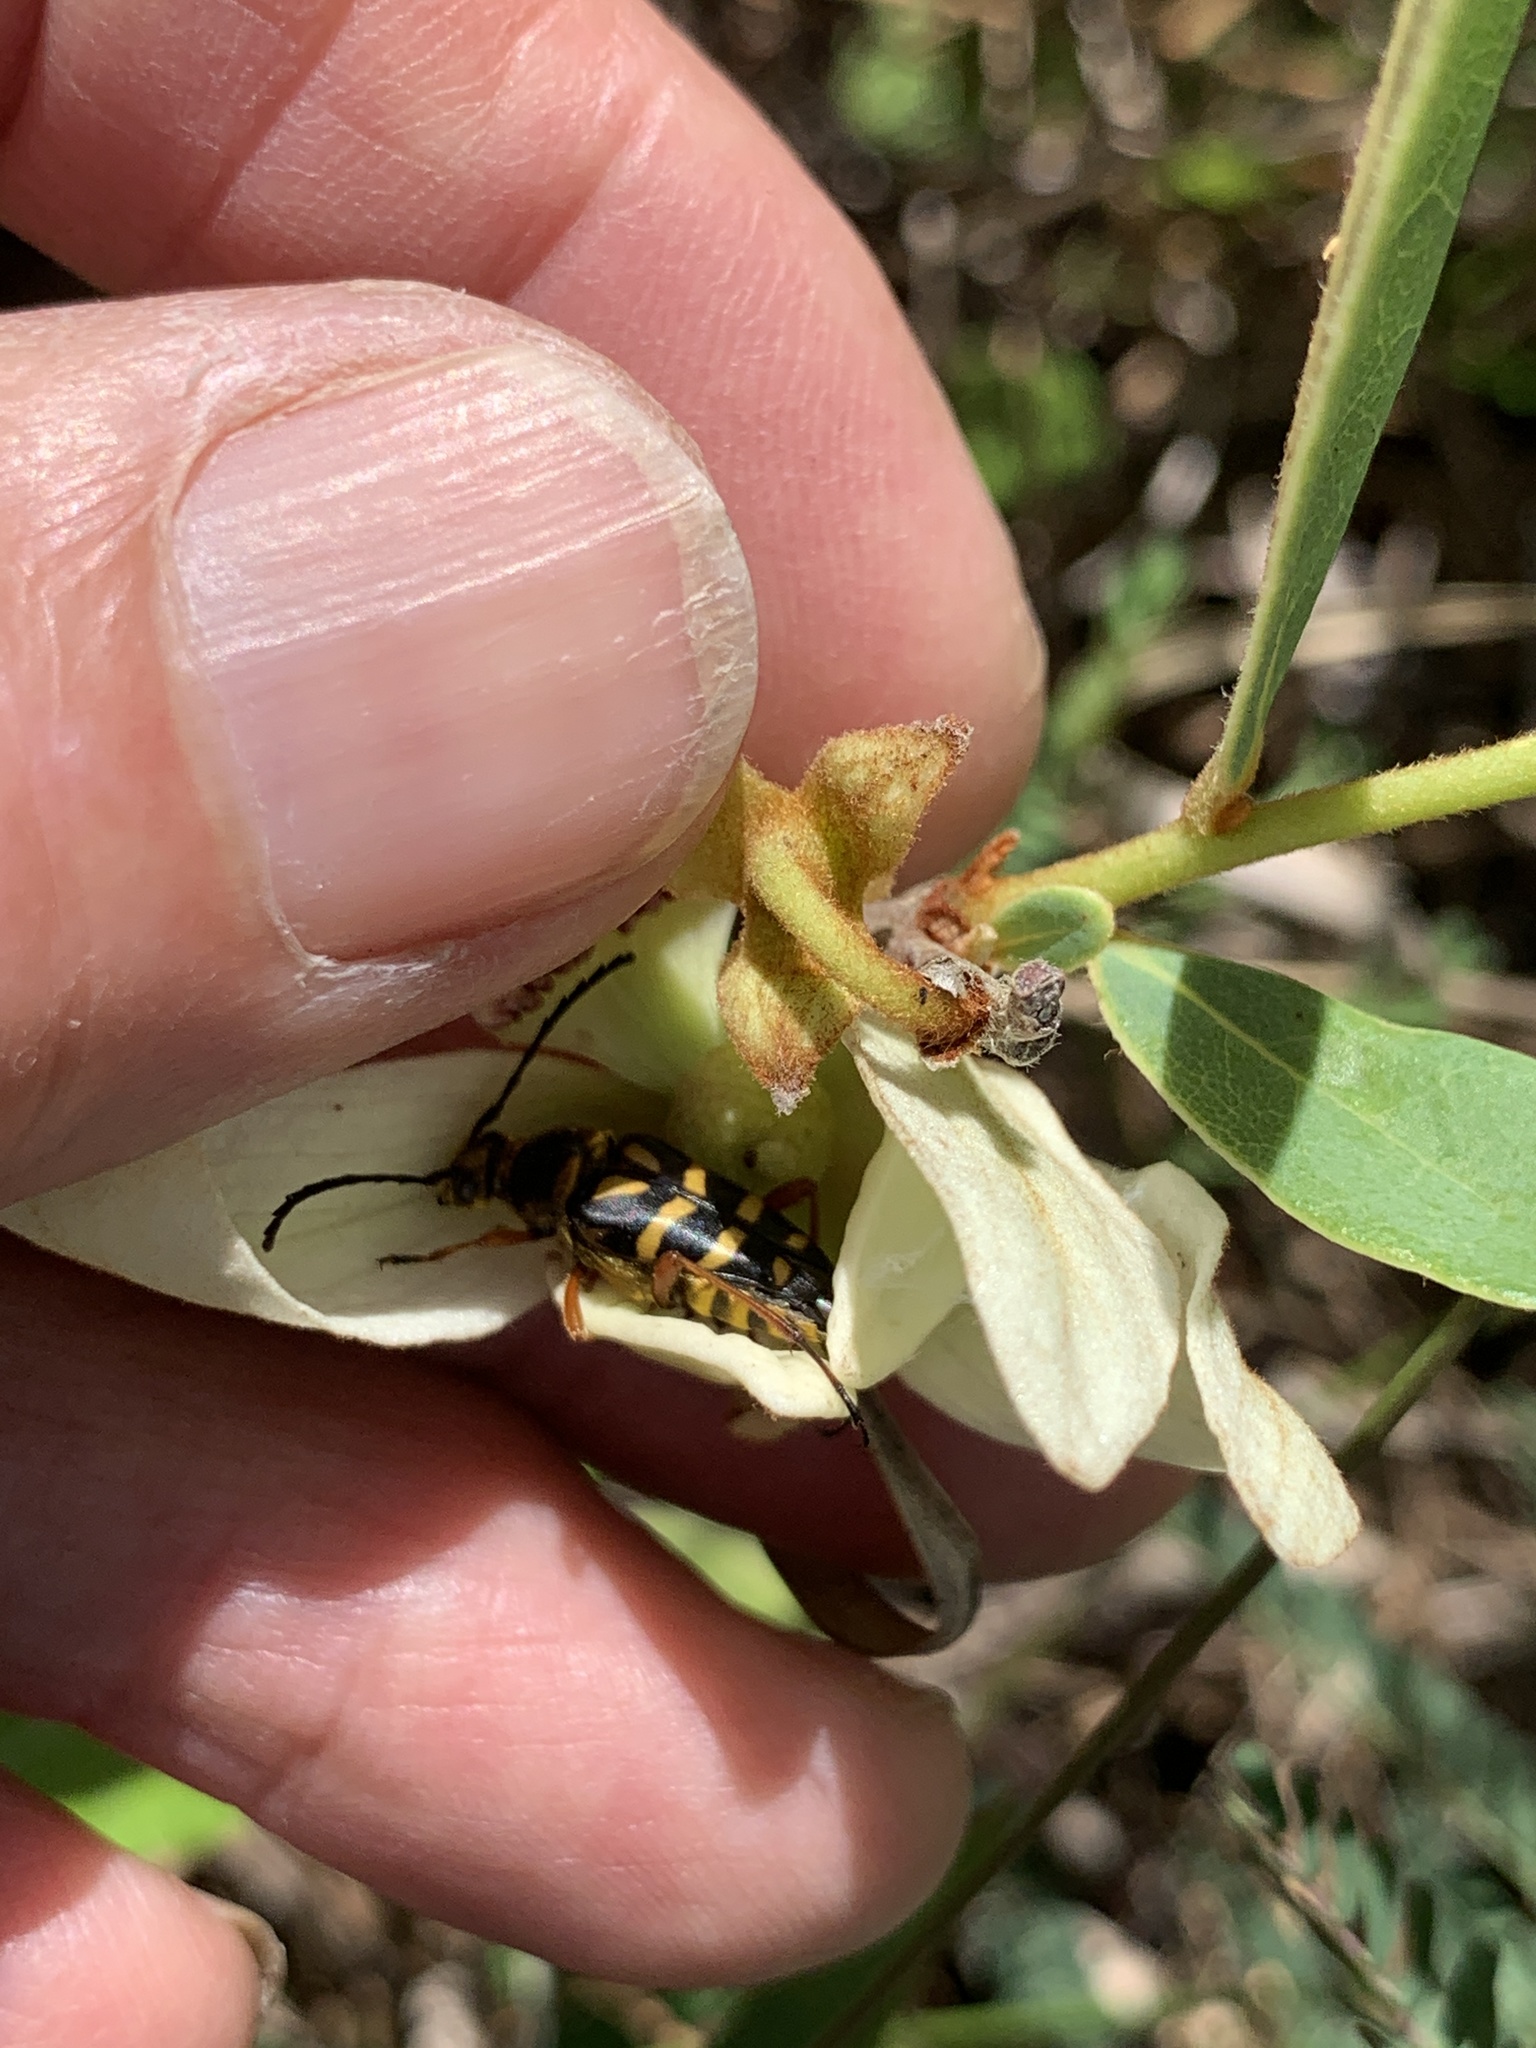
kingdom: Animalia
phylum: Arthropoda
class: Insecta
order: Coleoptera
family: Cerambycidae
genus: Typocerus
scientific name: Typocerus zebra
